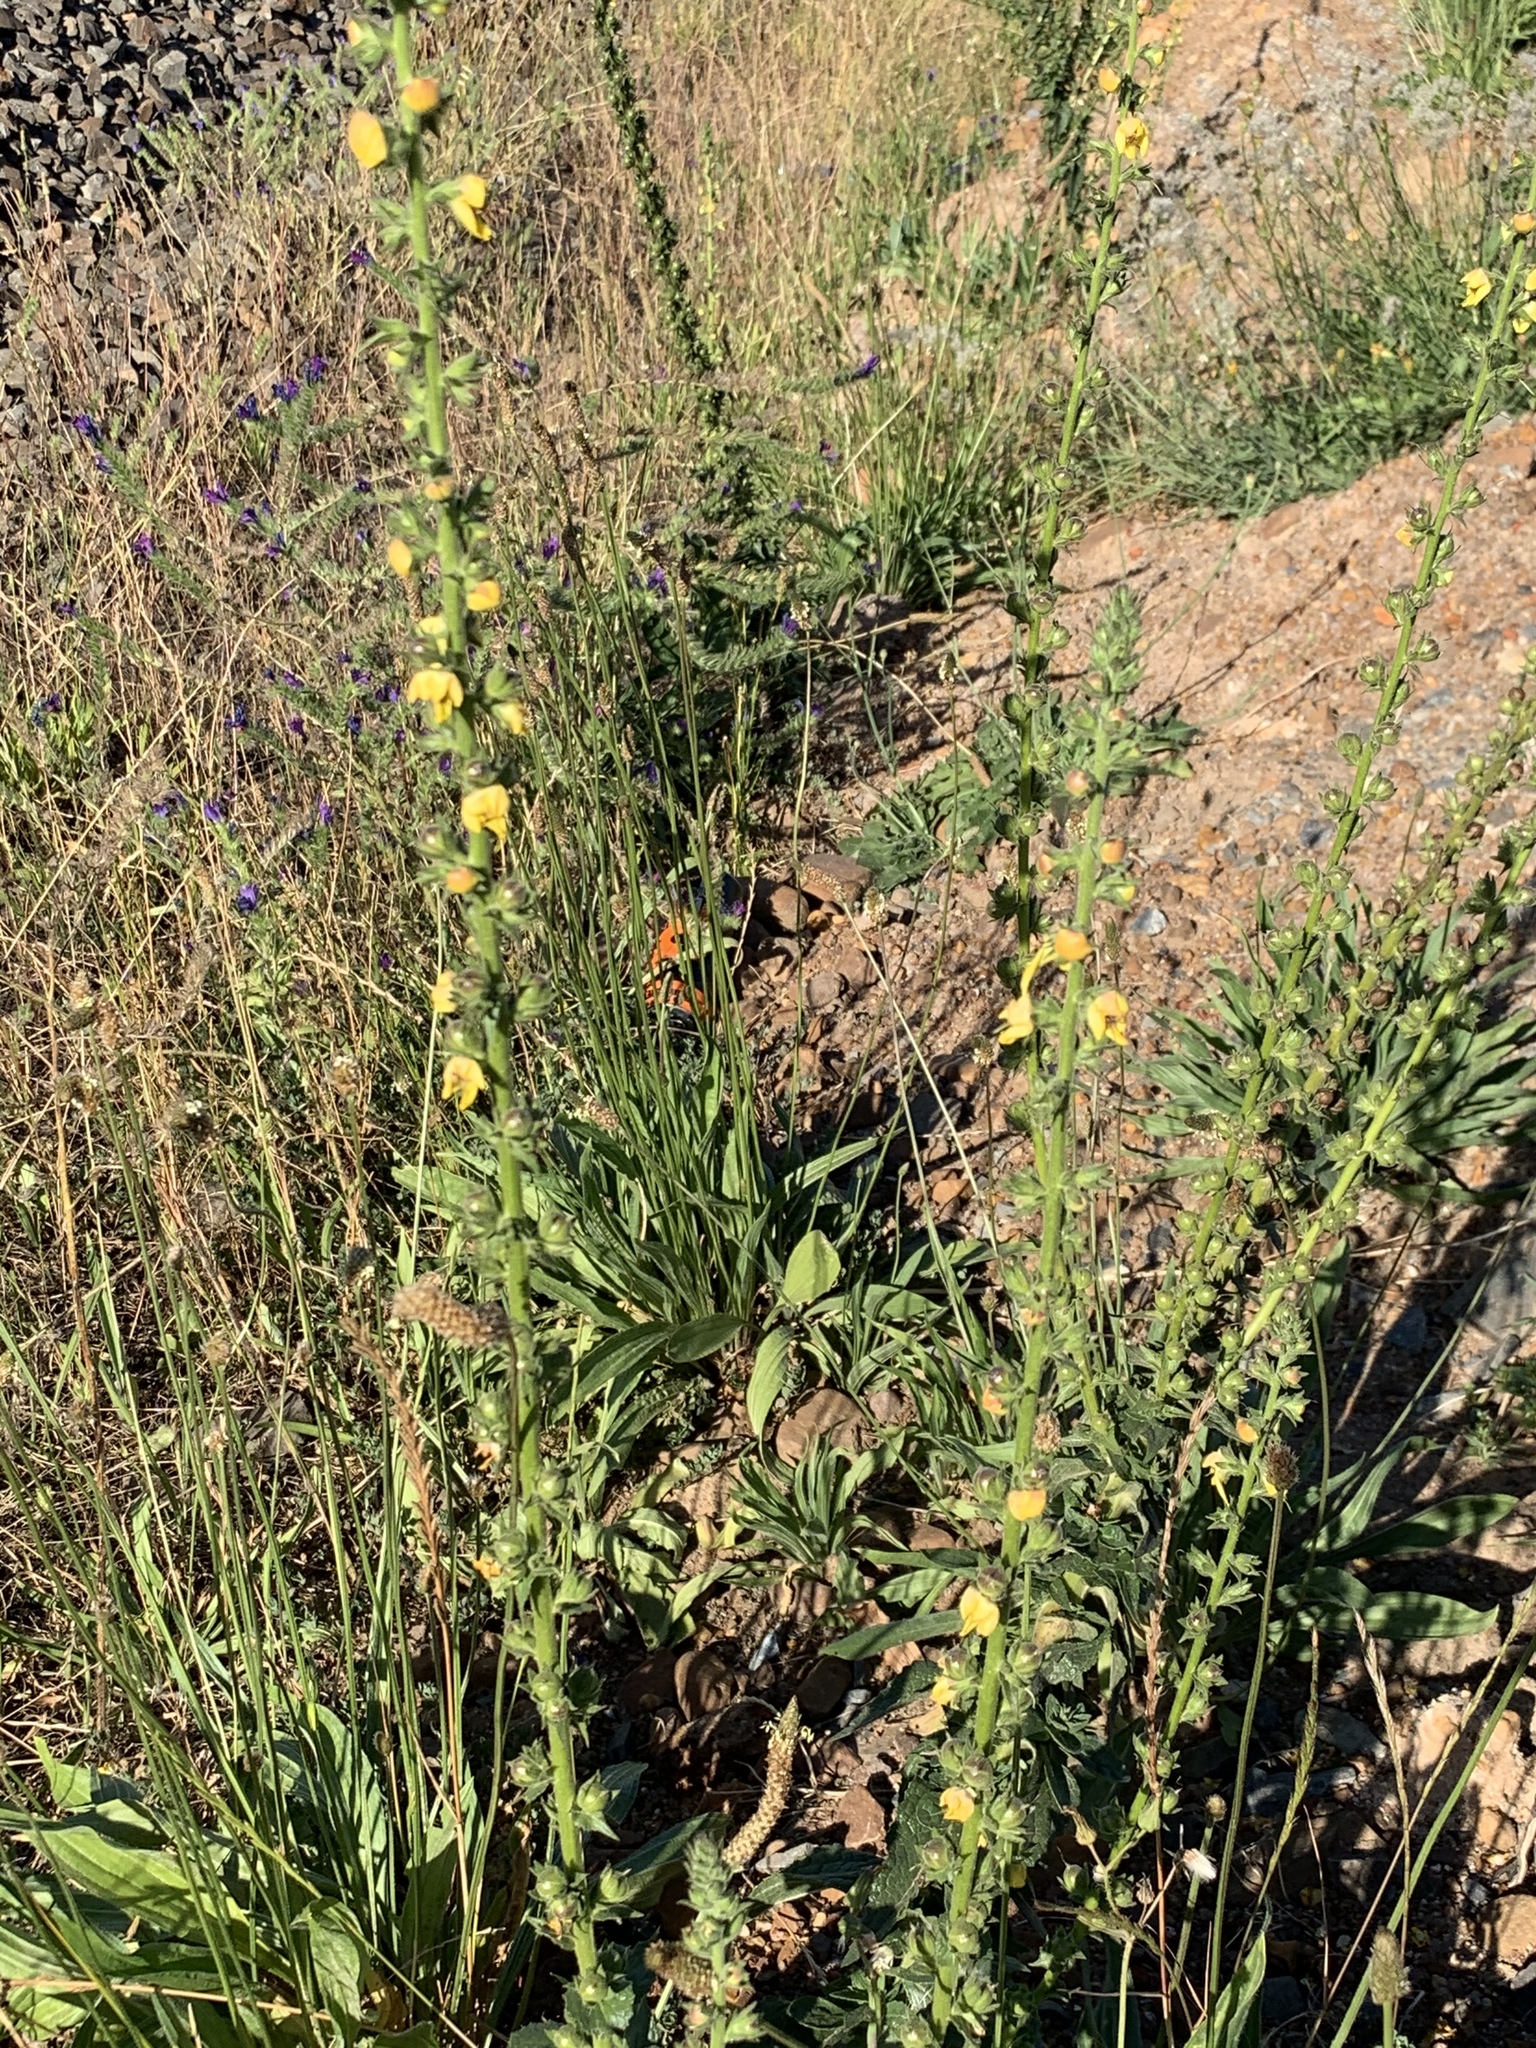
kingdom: Plantae
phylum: Tracheophyta
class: Magnoliopsida
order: Lamiales
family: Scrophulariaceae
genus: Verbascum
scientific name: Verbascum virgatum
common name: Twiggy mullein
